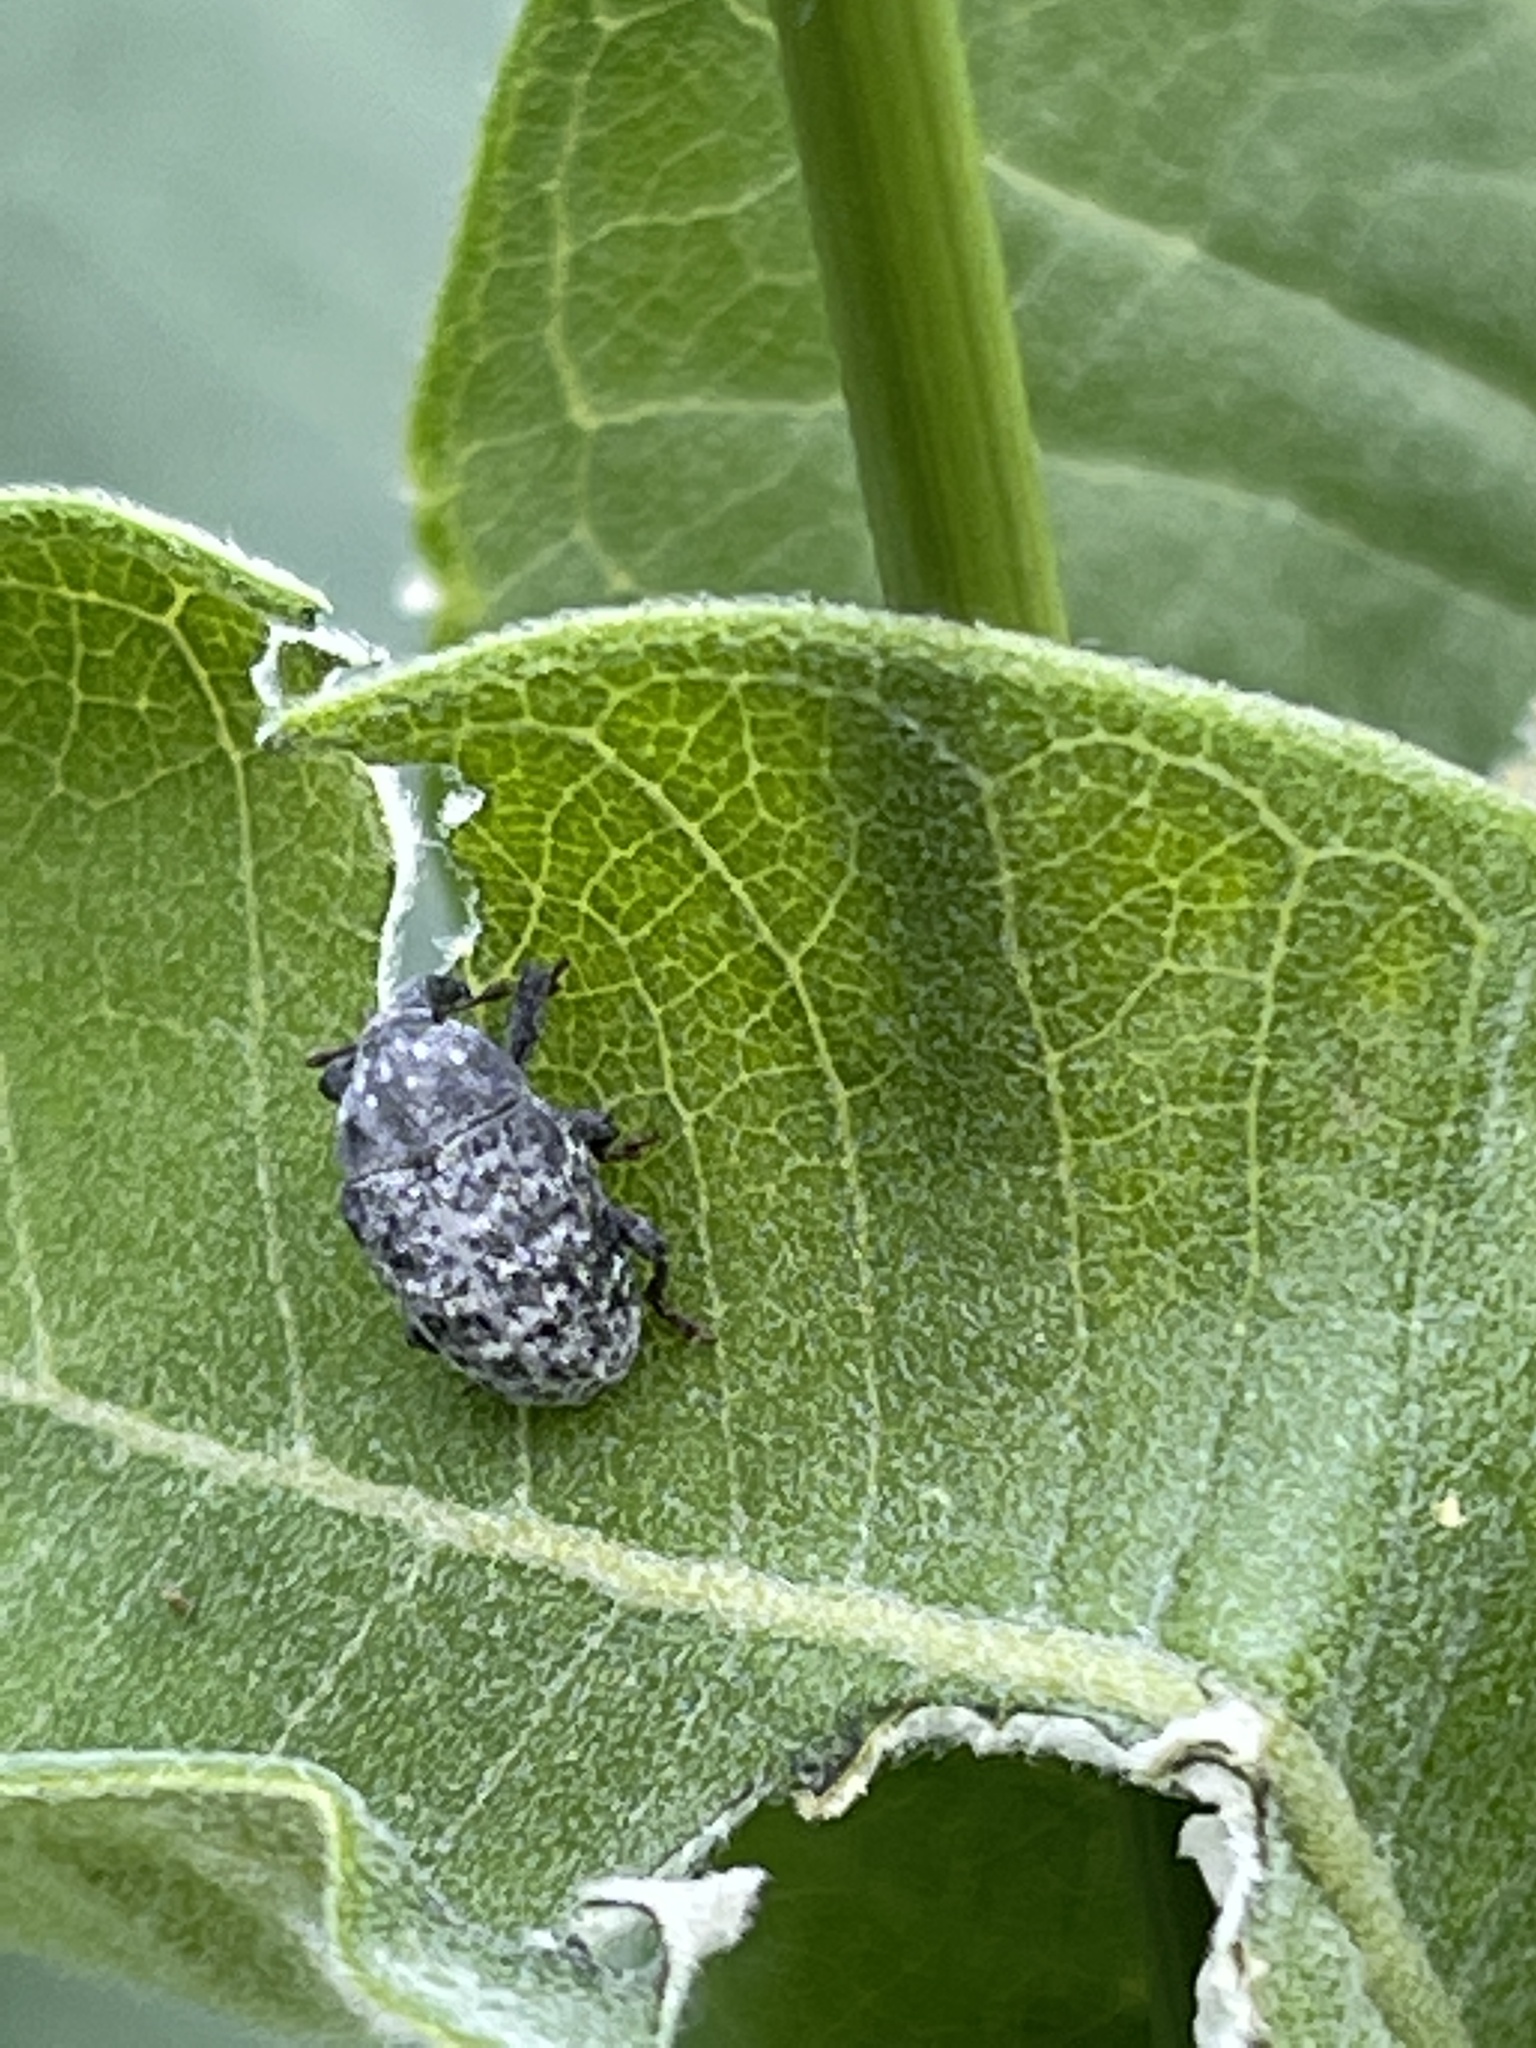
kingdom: Animalia
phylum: Arthropoda
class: Insecta
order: Coleoptera
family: Curculionidae
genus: Rhyssomatus
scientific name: Rhyssomatus lineaticollis
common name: Milkweed stem weevil
